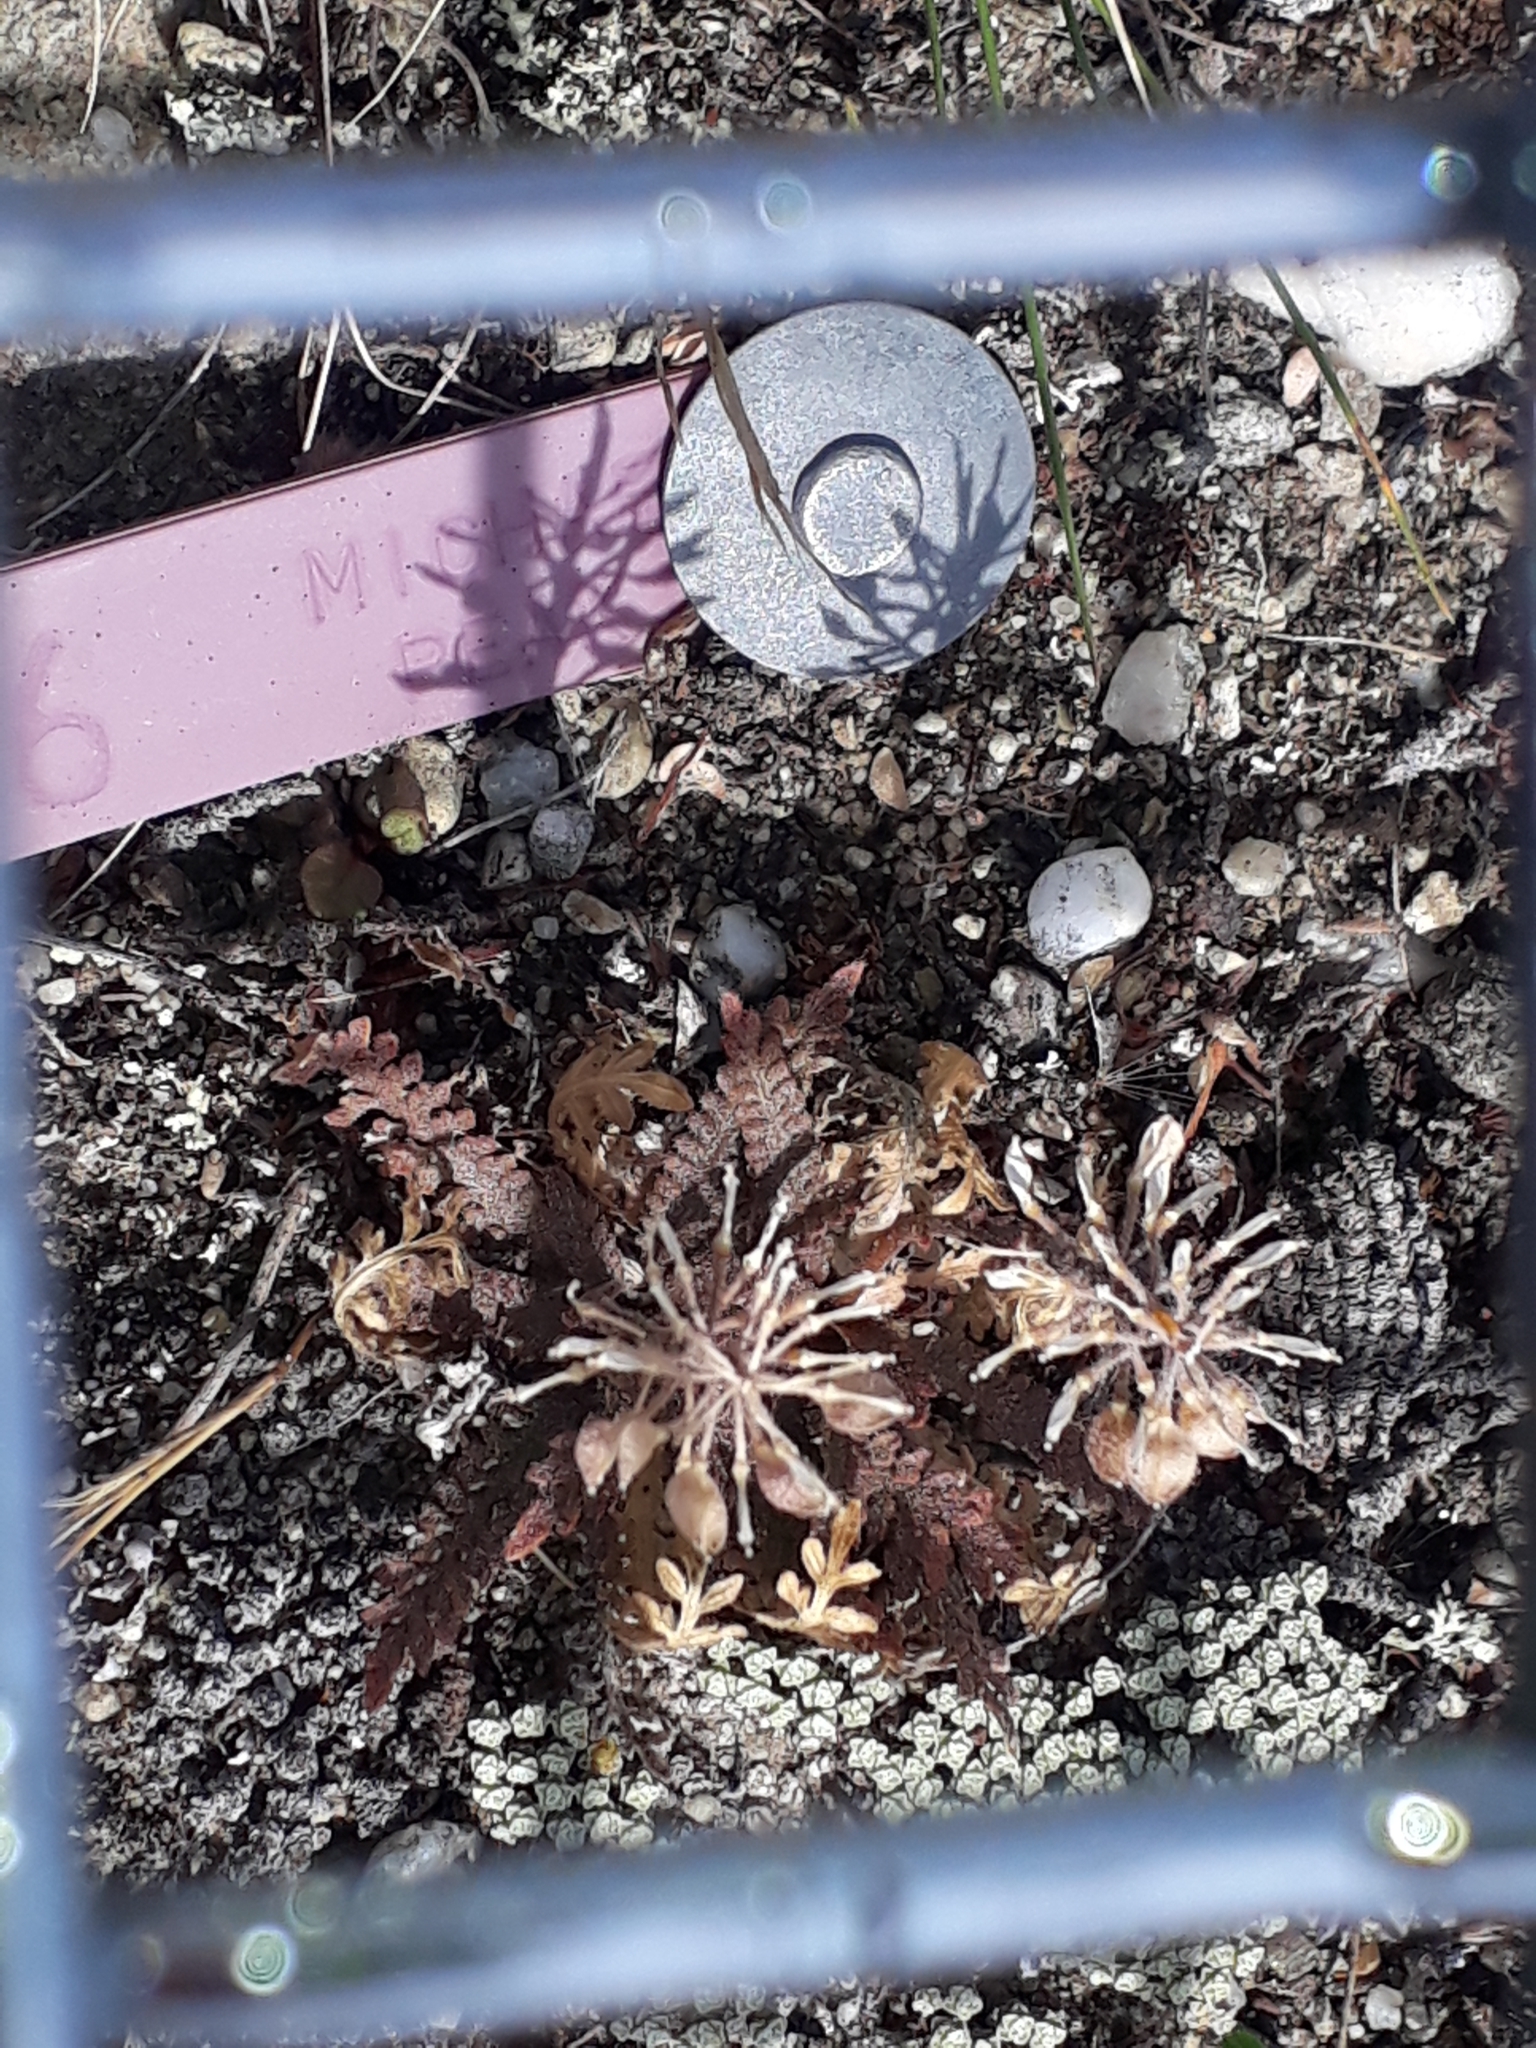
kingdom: Plantae
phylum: Tracheophyta
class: Magnoliopsida
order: Brassicales
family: Brassicaceae
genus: Lepidium
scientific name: Lepidium sisymbrioides
